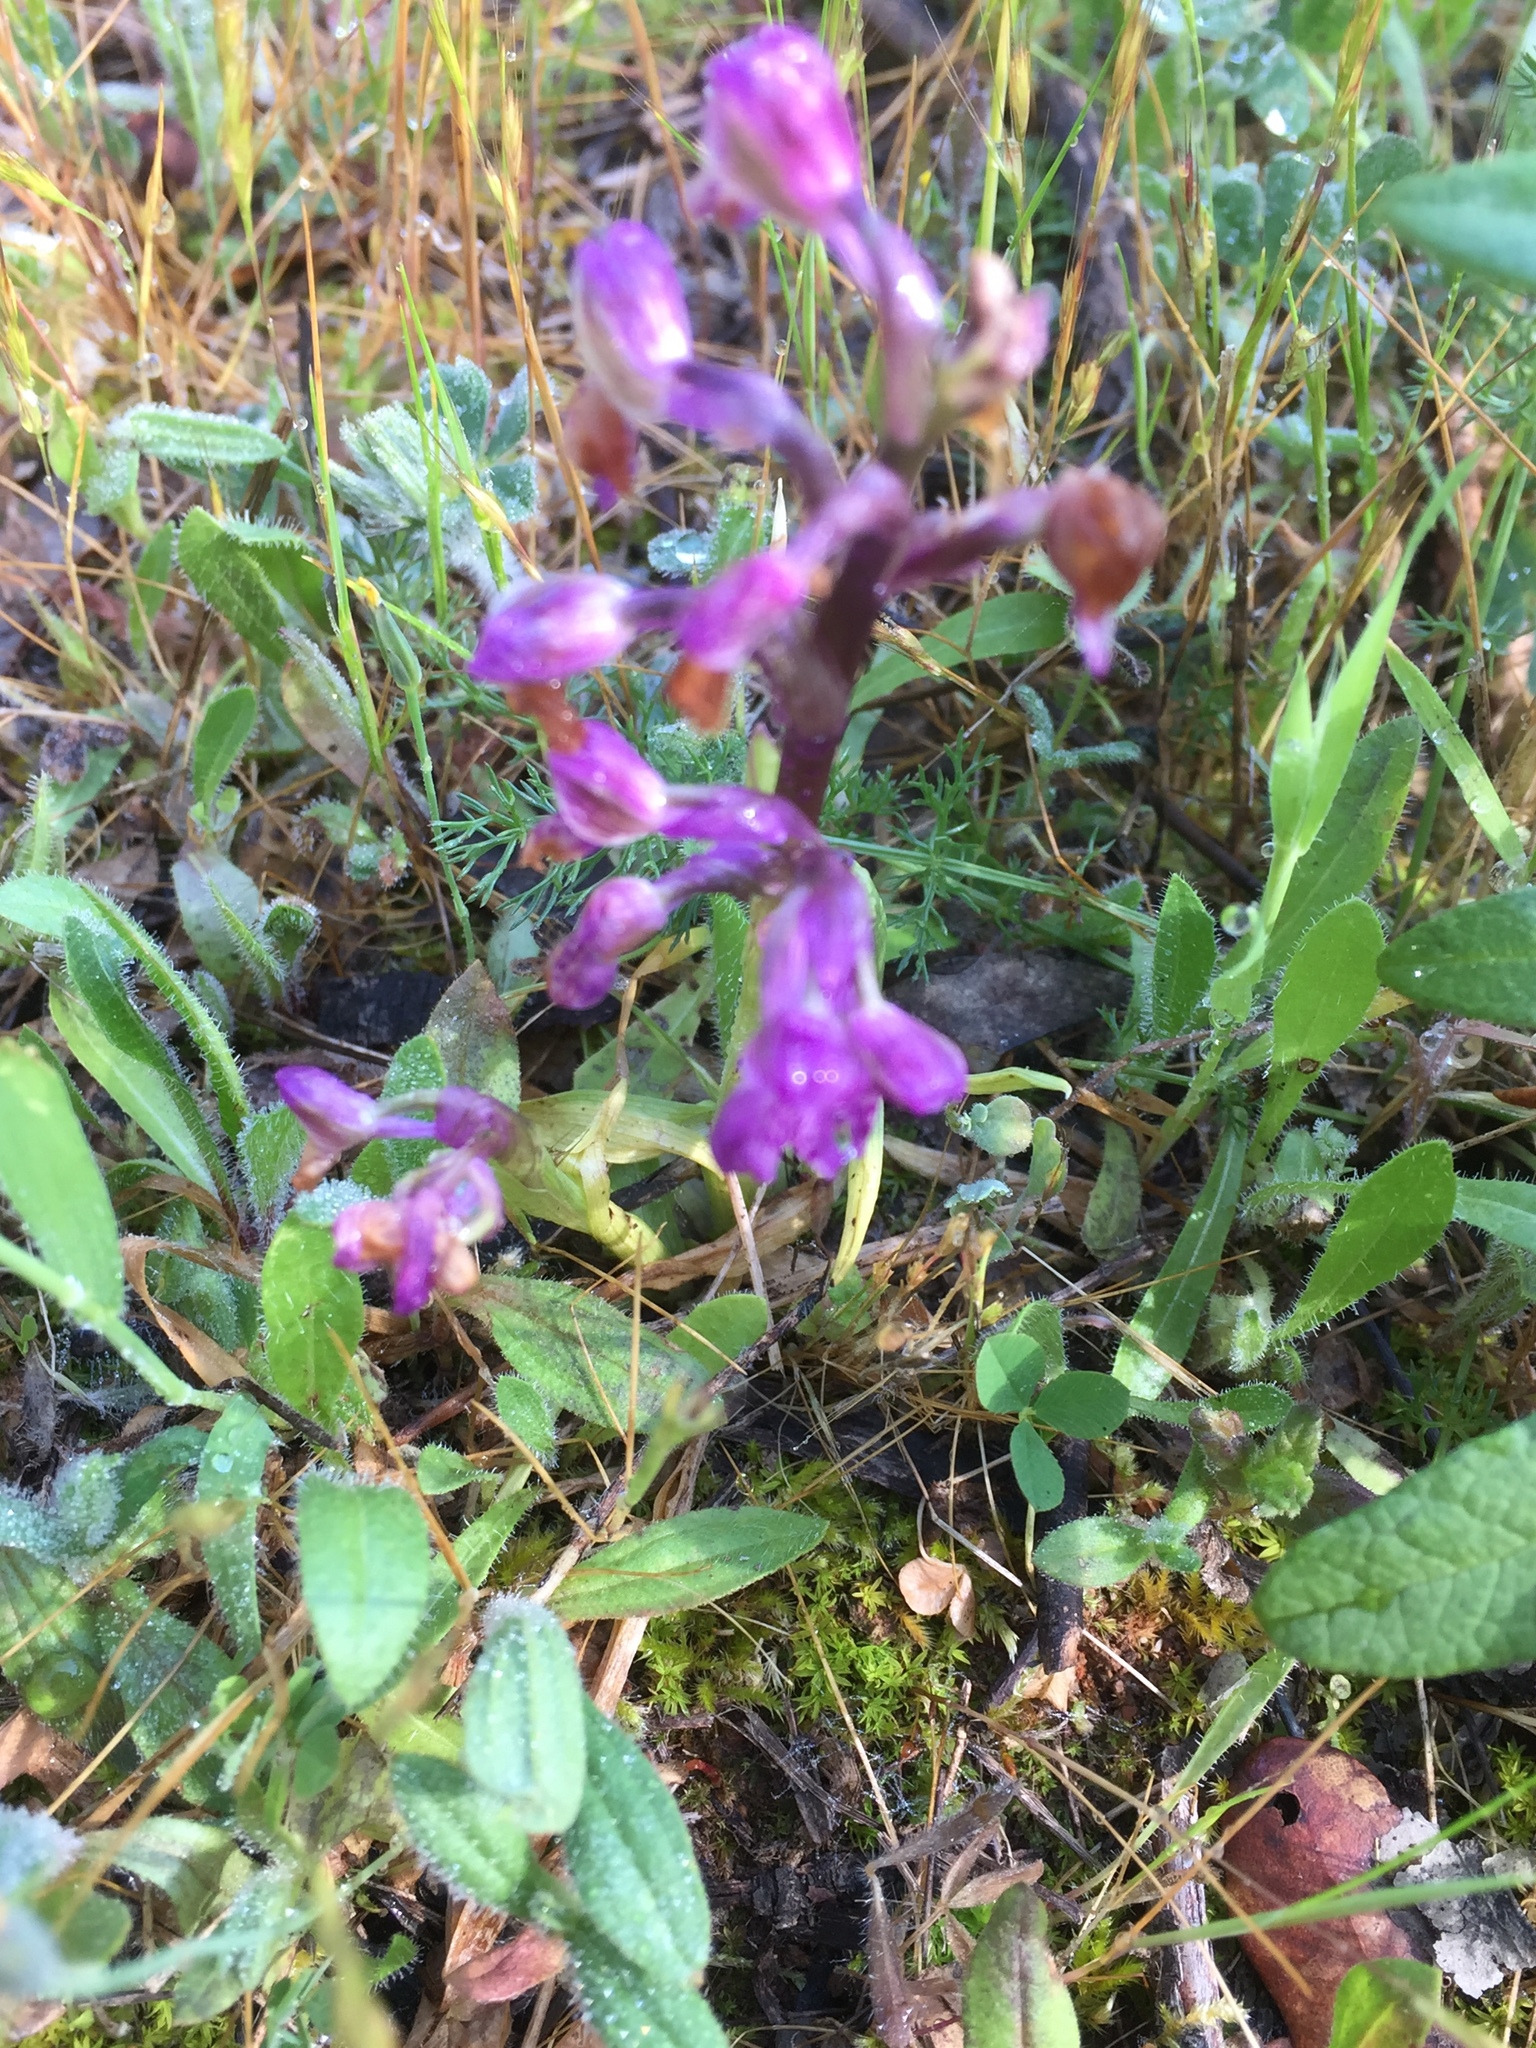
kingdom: Plantae
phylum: Tracheophyta
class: Liliopsida
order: Asparagales
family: Orchidaceae
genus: Anacamptis
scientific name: Anacamptis morio
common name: Green-winged orchid
